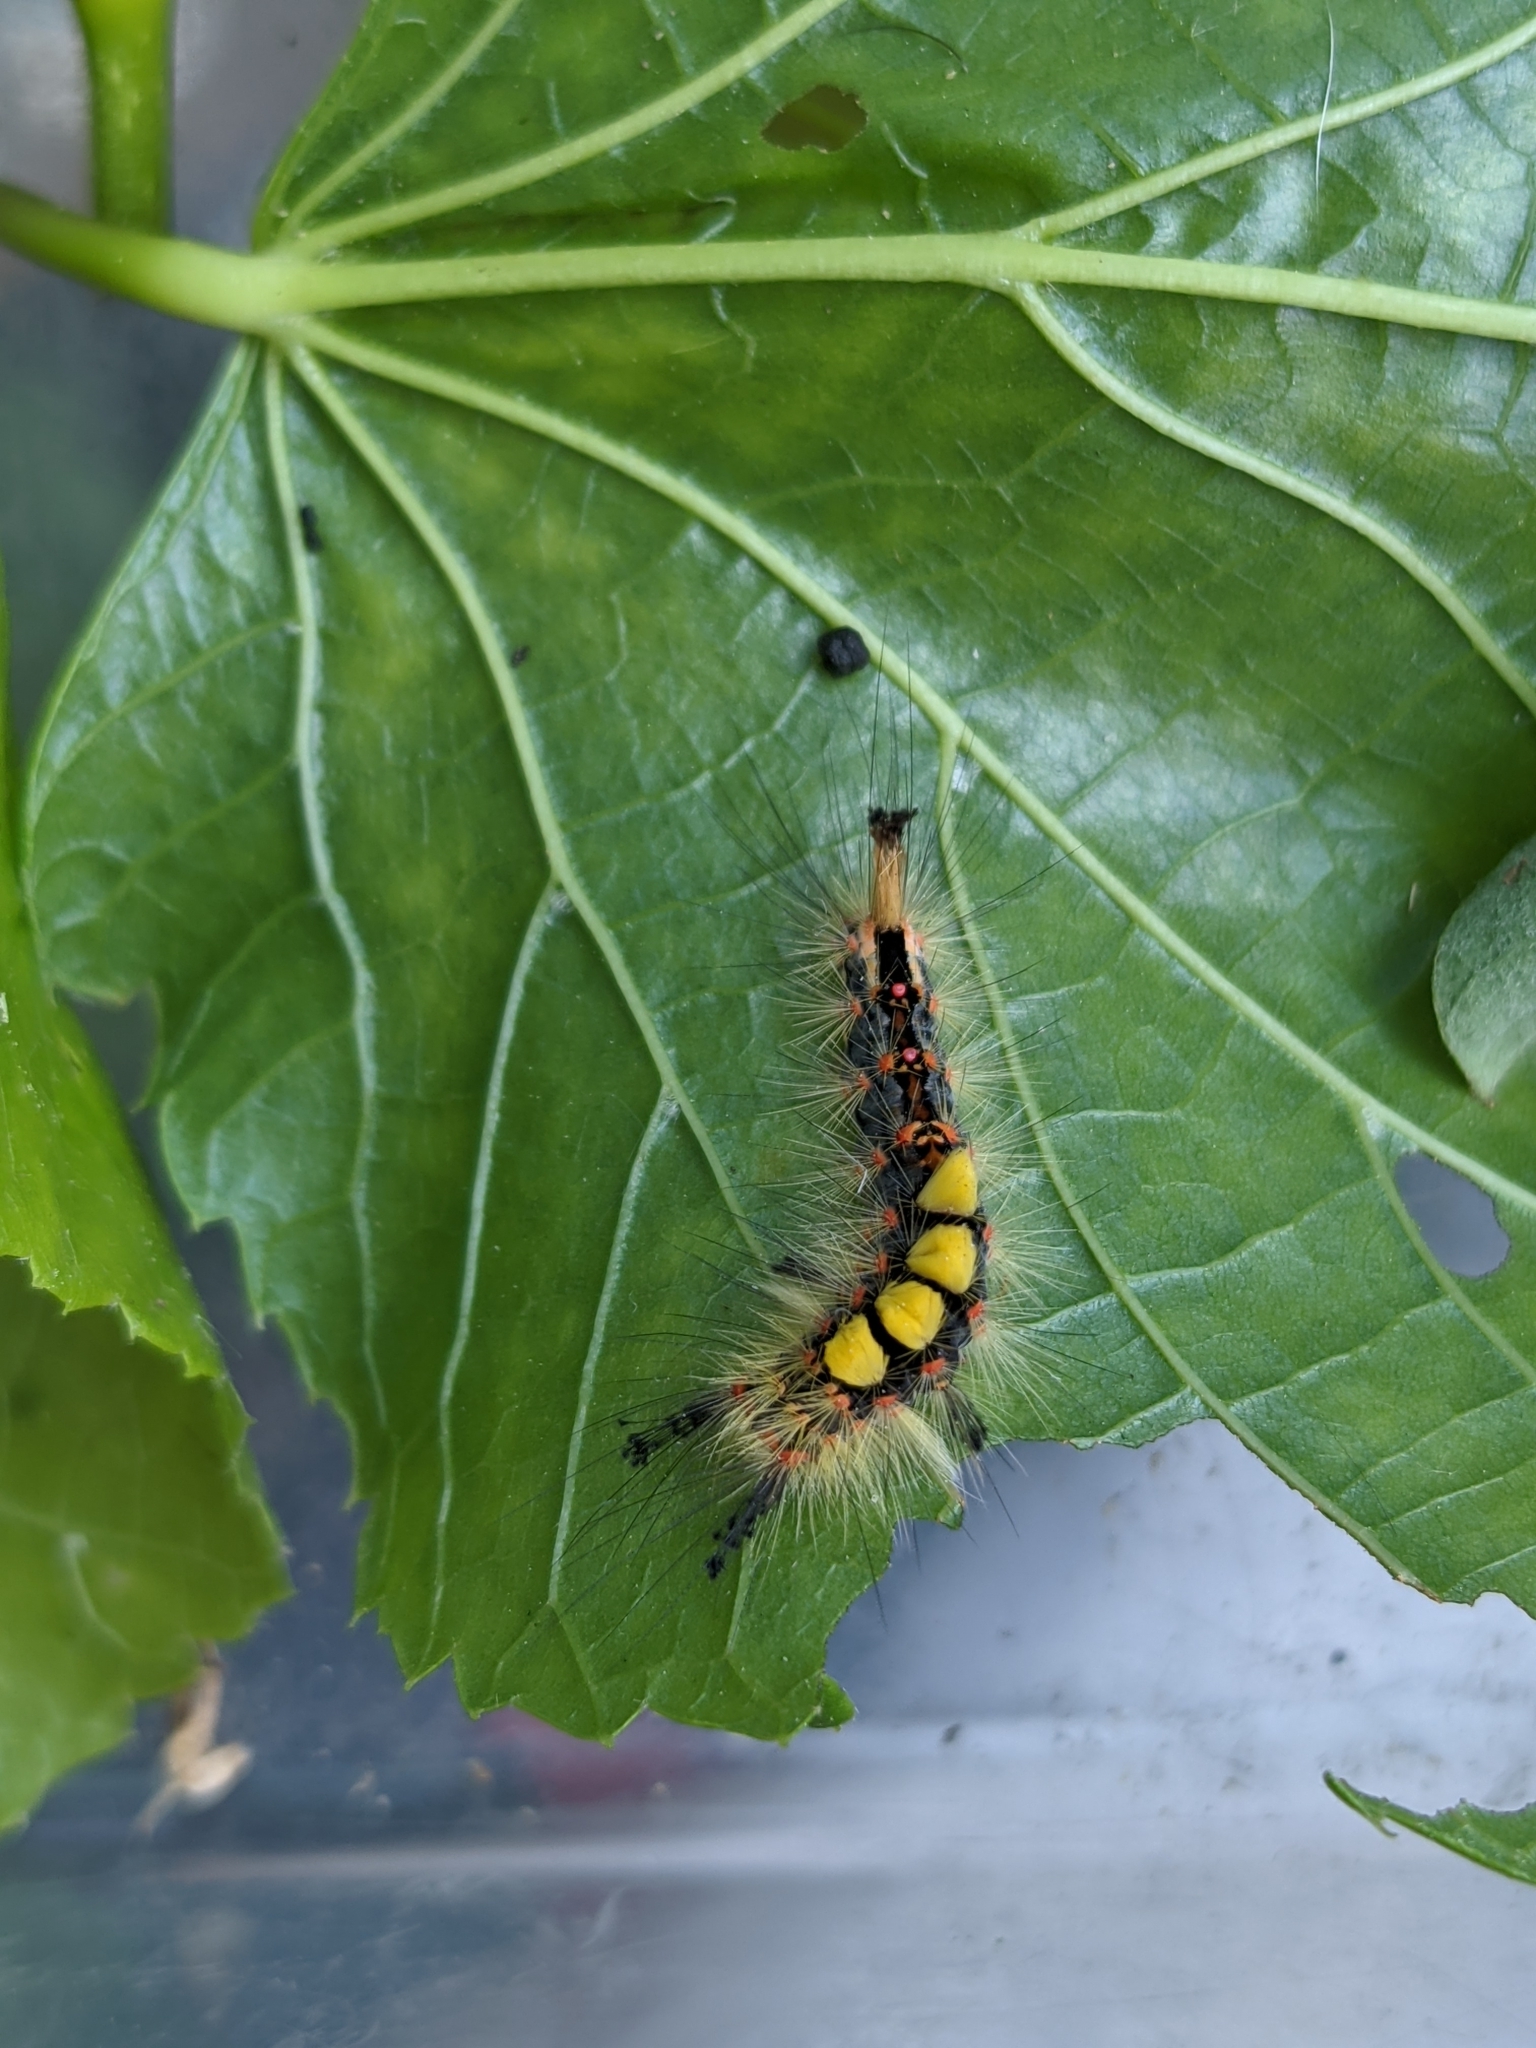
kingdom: Animalia
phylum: Arthropoda
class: Insecta
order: Lepidoptera
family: Erebidae
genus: Orgyia
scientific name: Orgyia antiqua
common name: Vapourer
